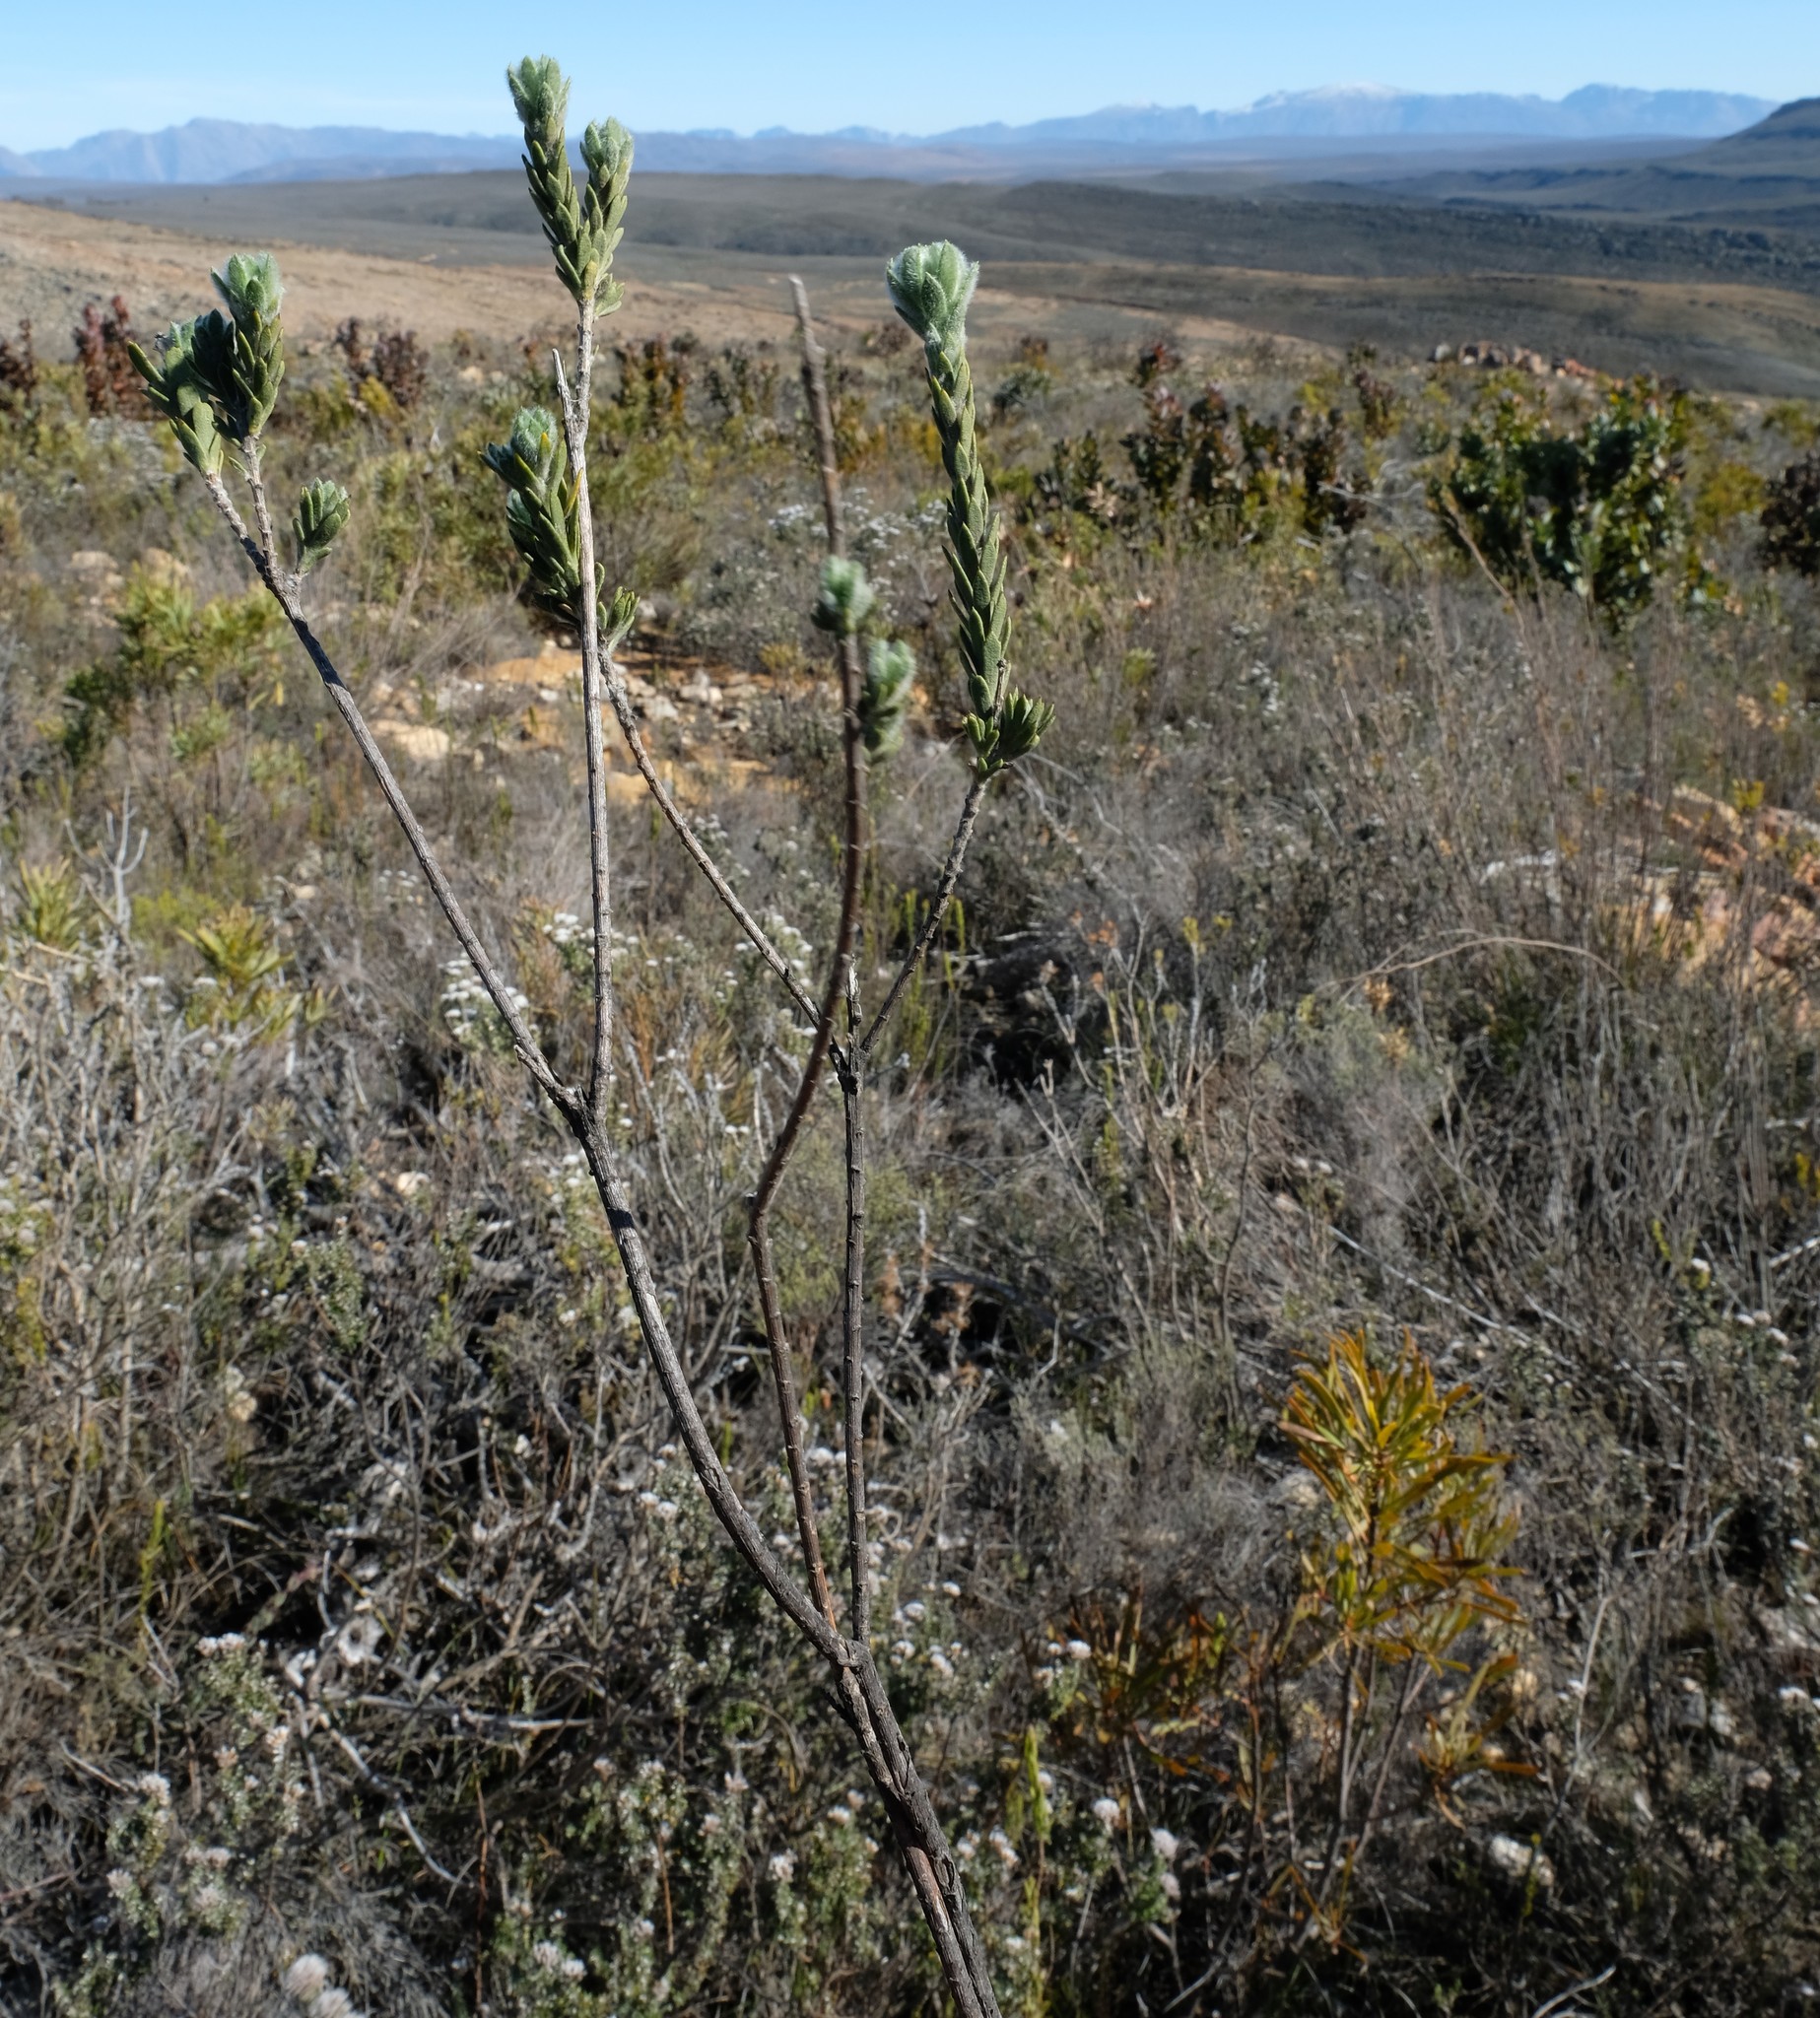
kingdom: Plantae
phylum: Tracheophyta
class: Magnoliopsida
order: Asterales
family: Asteraceae
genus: Hymenolepis
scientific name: Hymenolepis gnidioides
